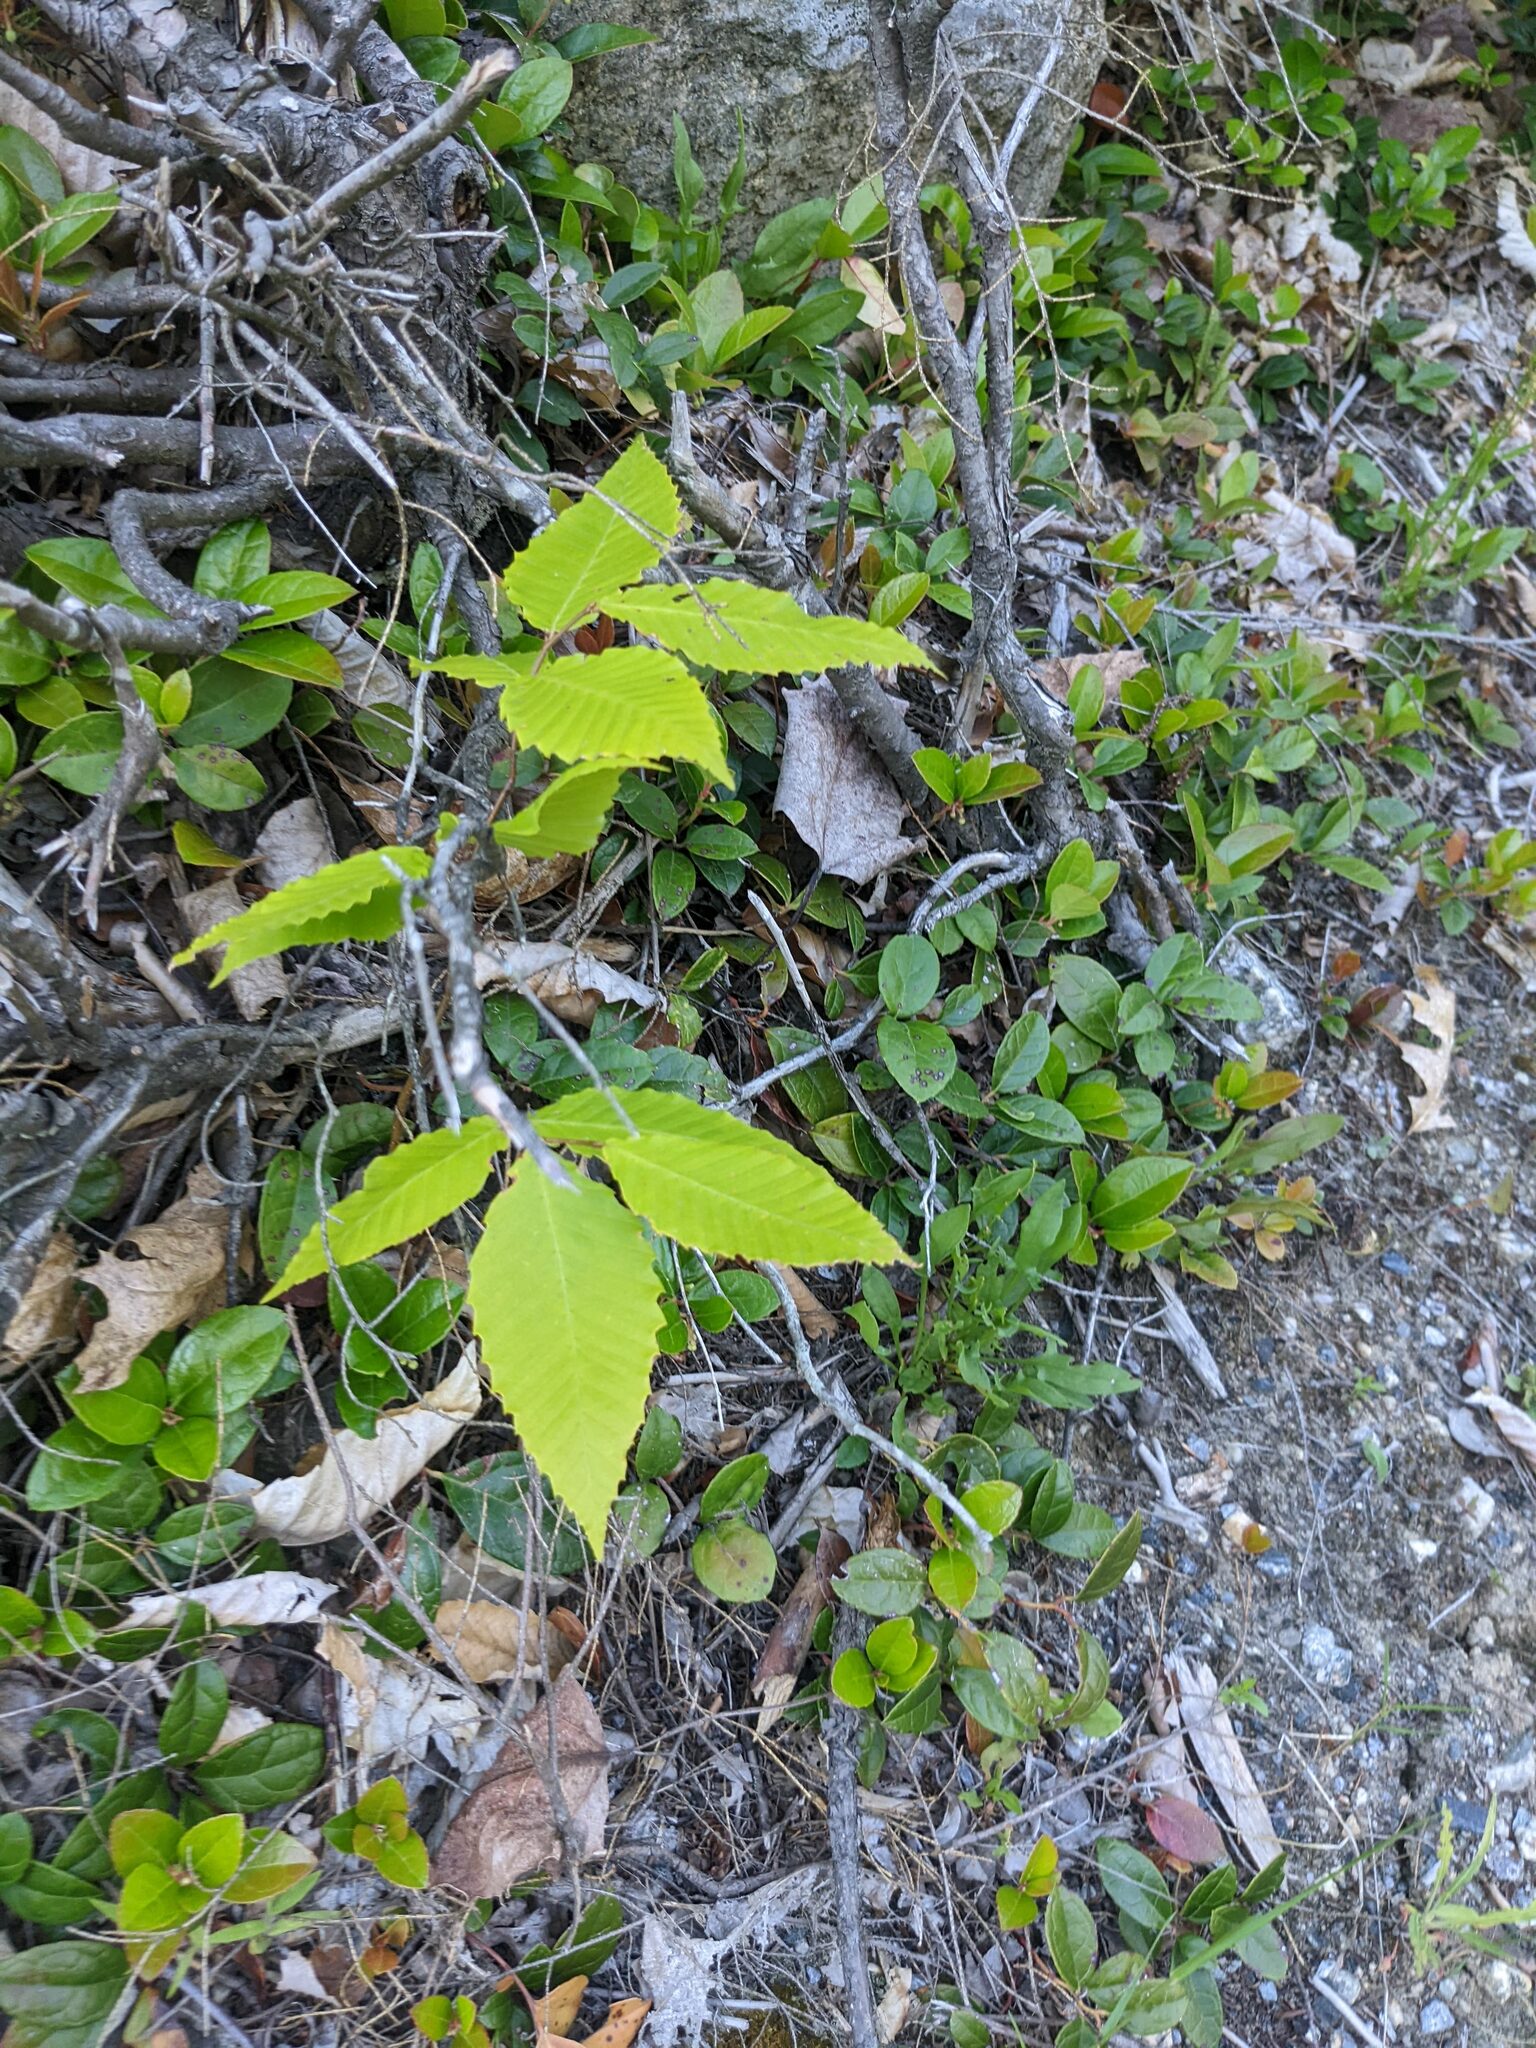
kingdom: Plantae
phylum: Tracheophyta
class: Magnoliopsida
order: Fagales
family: Fagaceae
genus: Fagus
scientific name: Fagus grandifolia
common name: American beech
